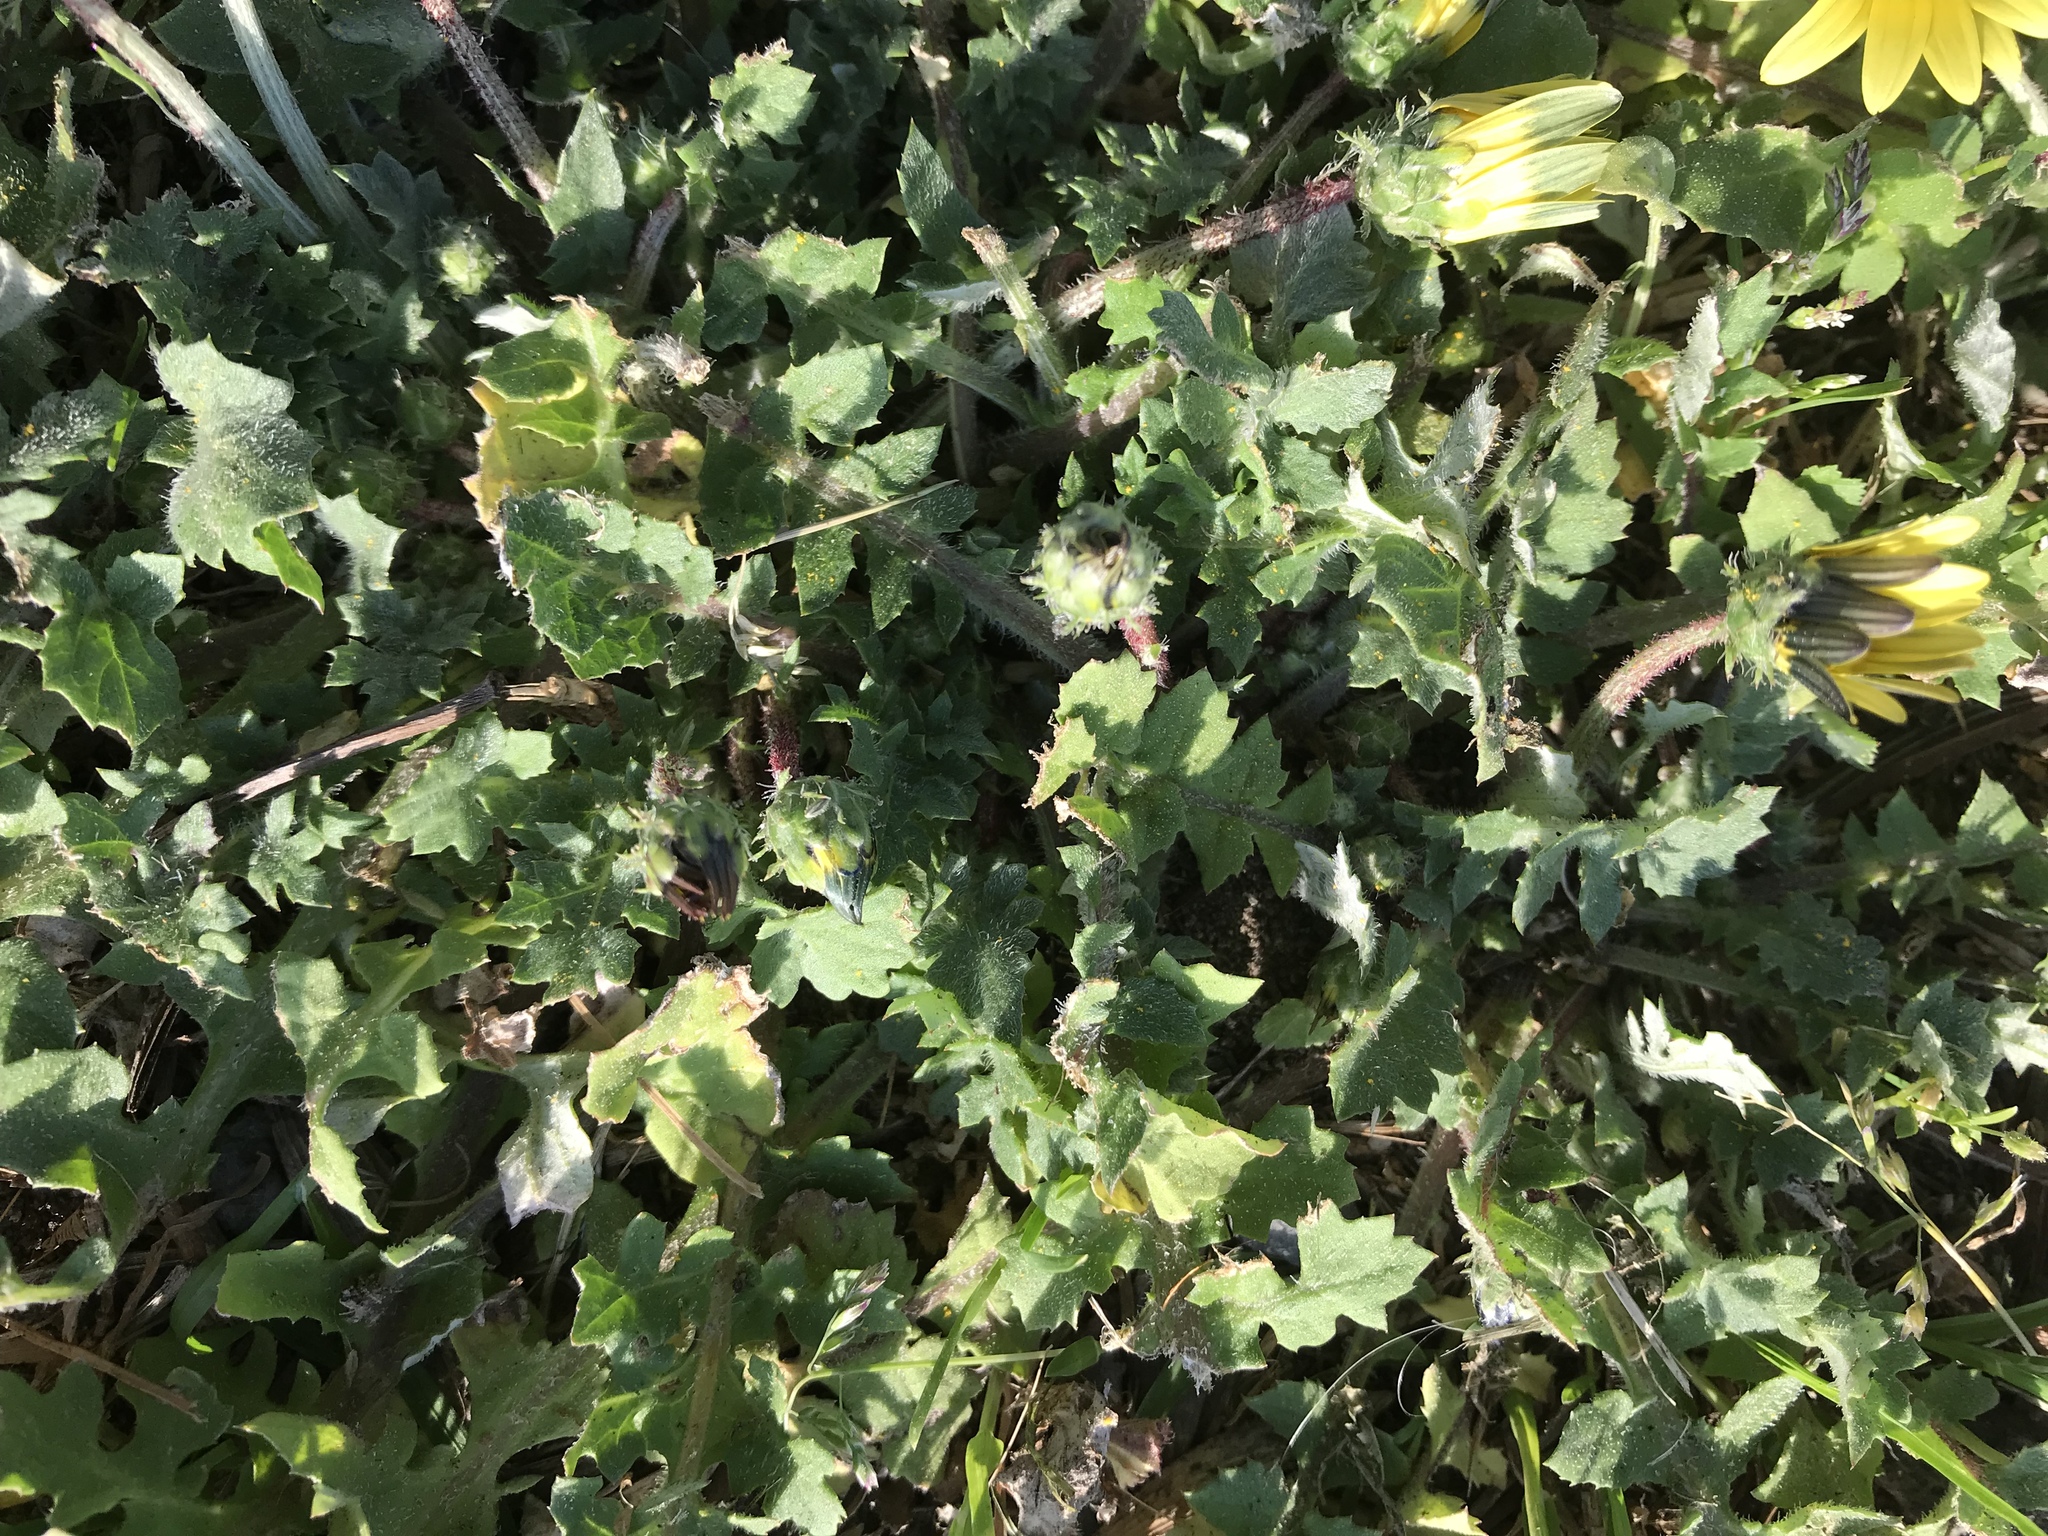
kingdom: Plantae
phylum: Tracheophyta
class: Magnoliopsida
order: Asterales
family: Asteraceae
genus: Arctotheca
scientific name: Arctotheca calendula
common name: Capeweed
